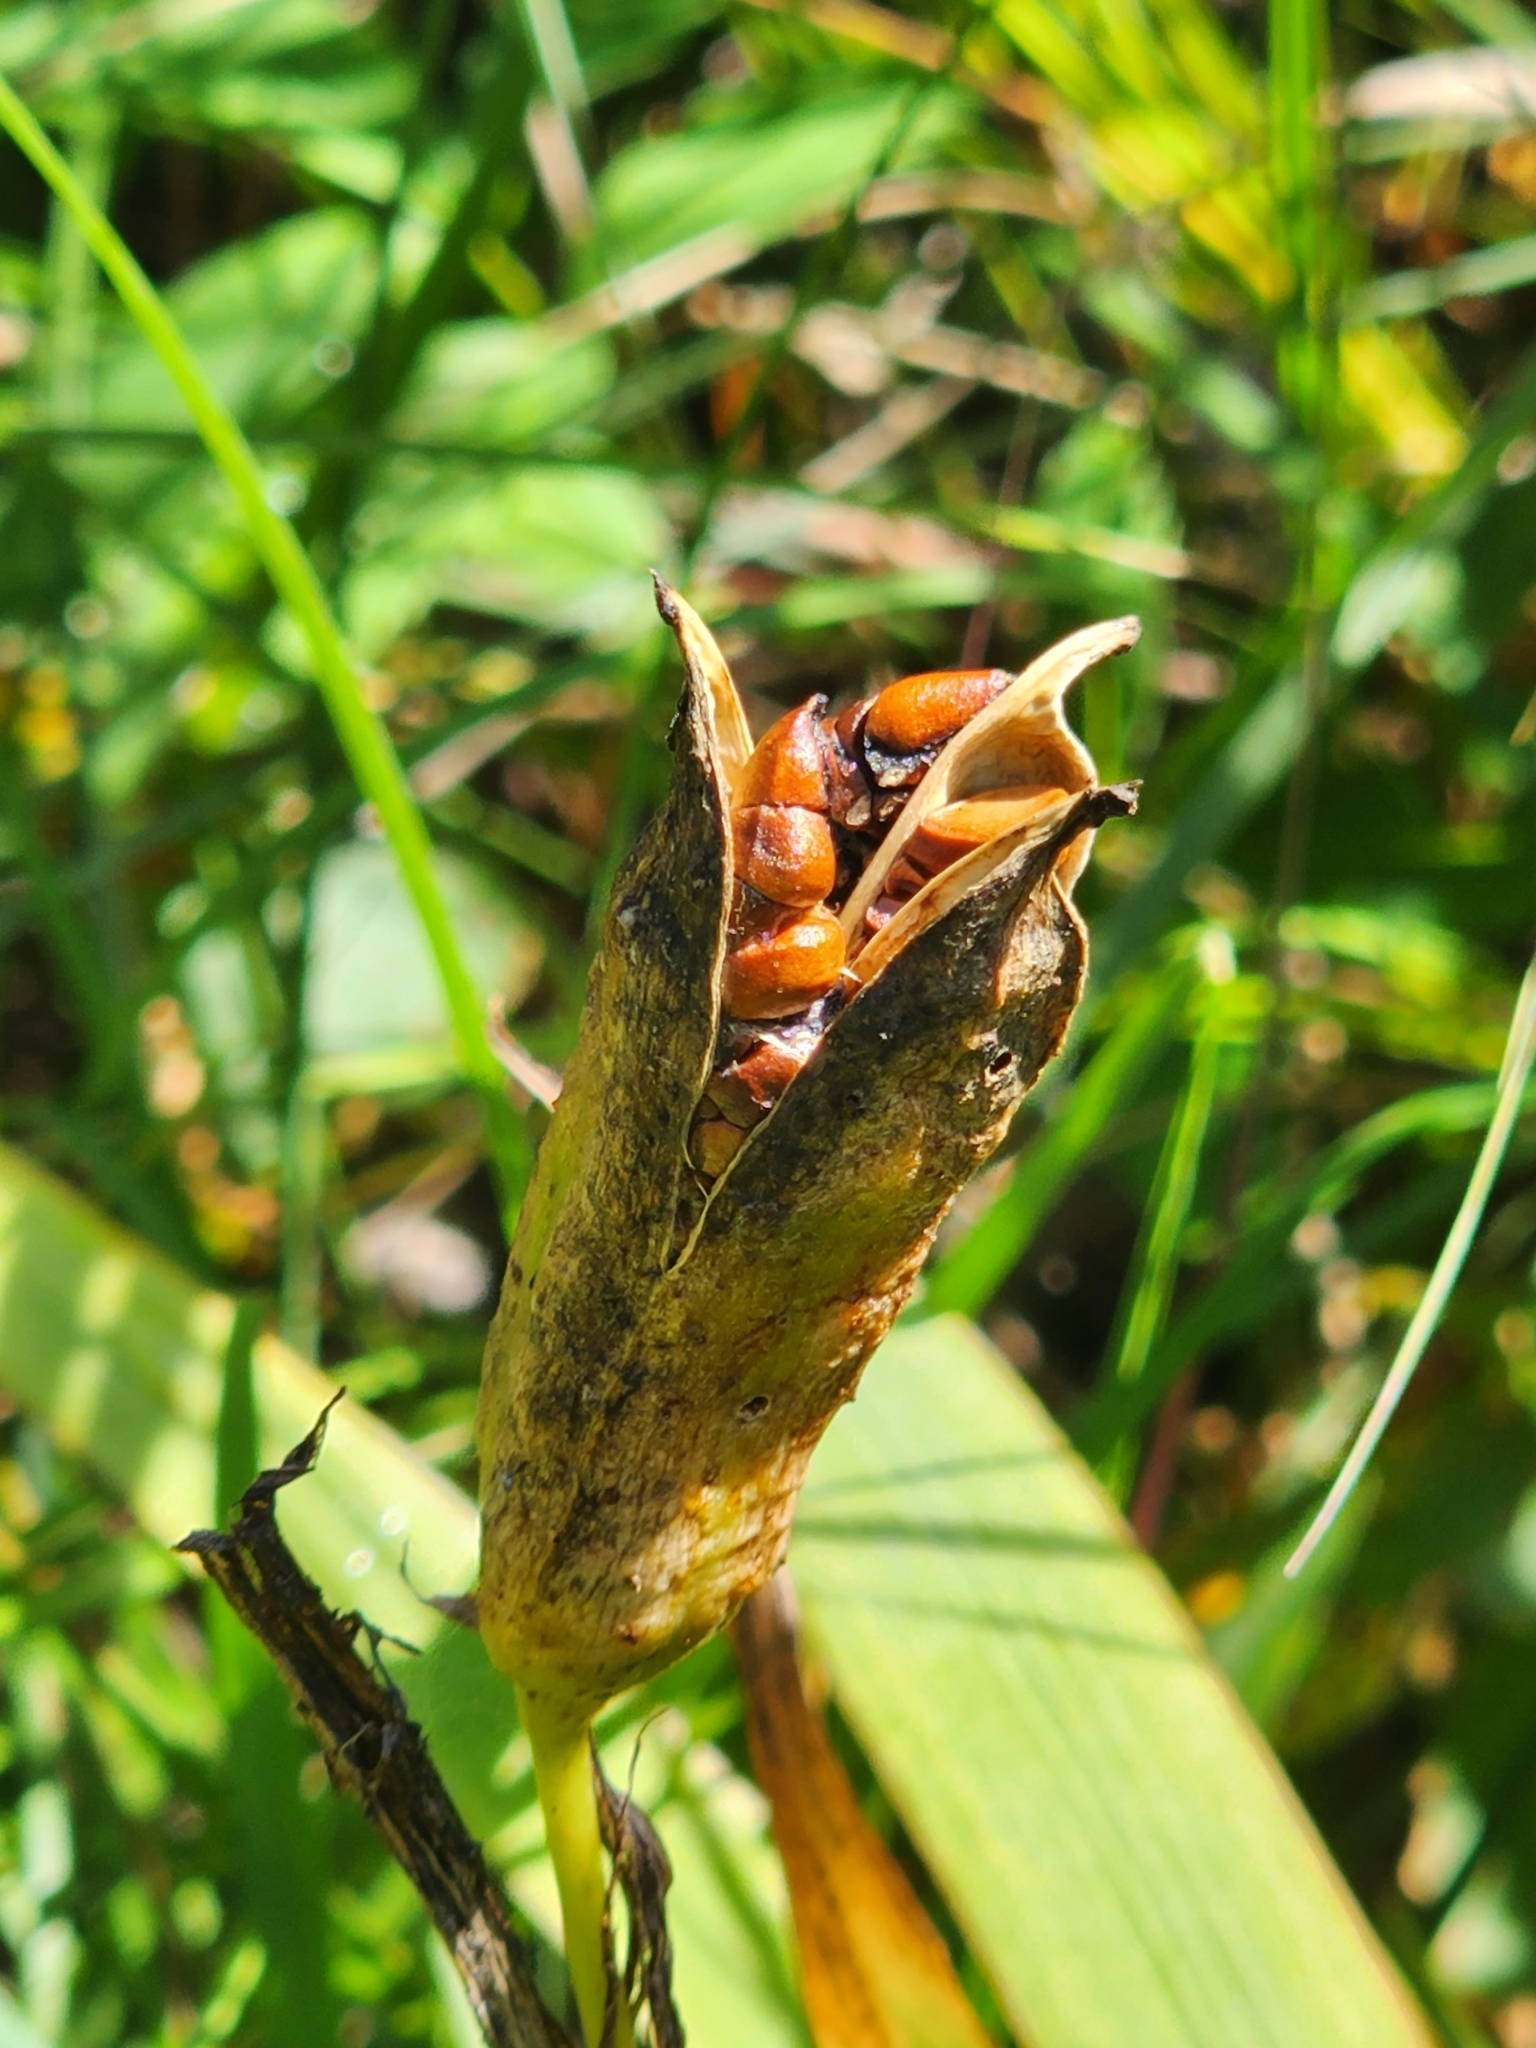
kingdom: Plantae
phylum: Tracheophyta
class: Liliopsida
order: Asparagales
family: Iridaceae
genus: Iris
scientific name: Iris versicolor
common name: Purple iris
